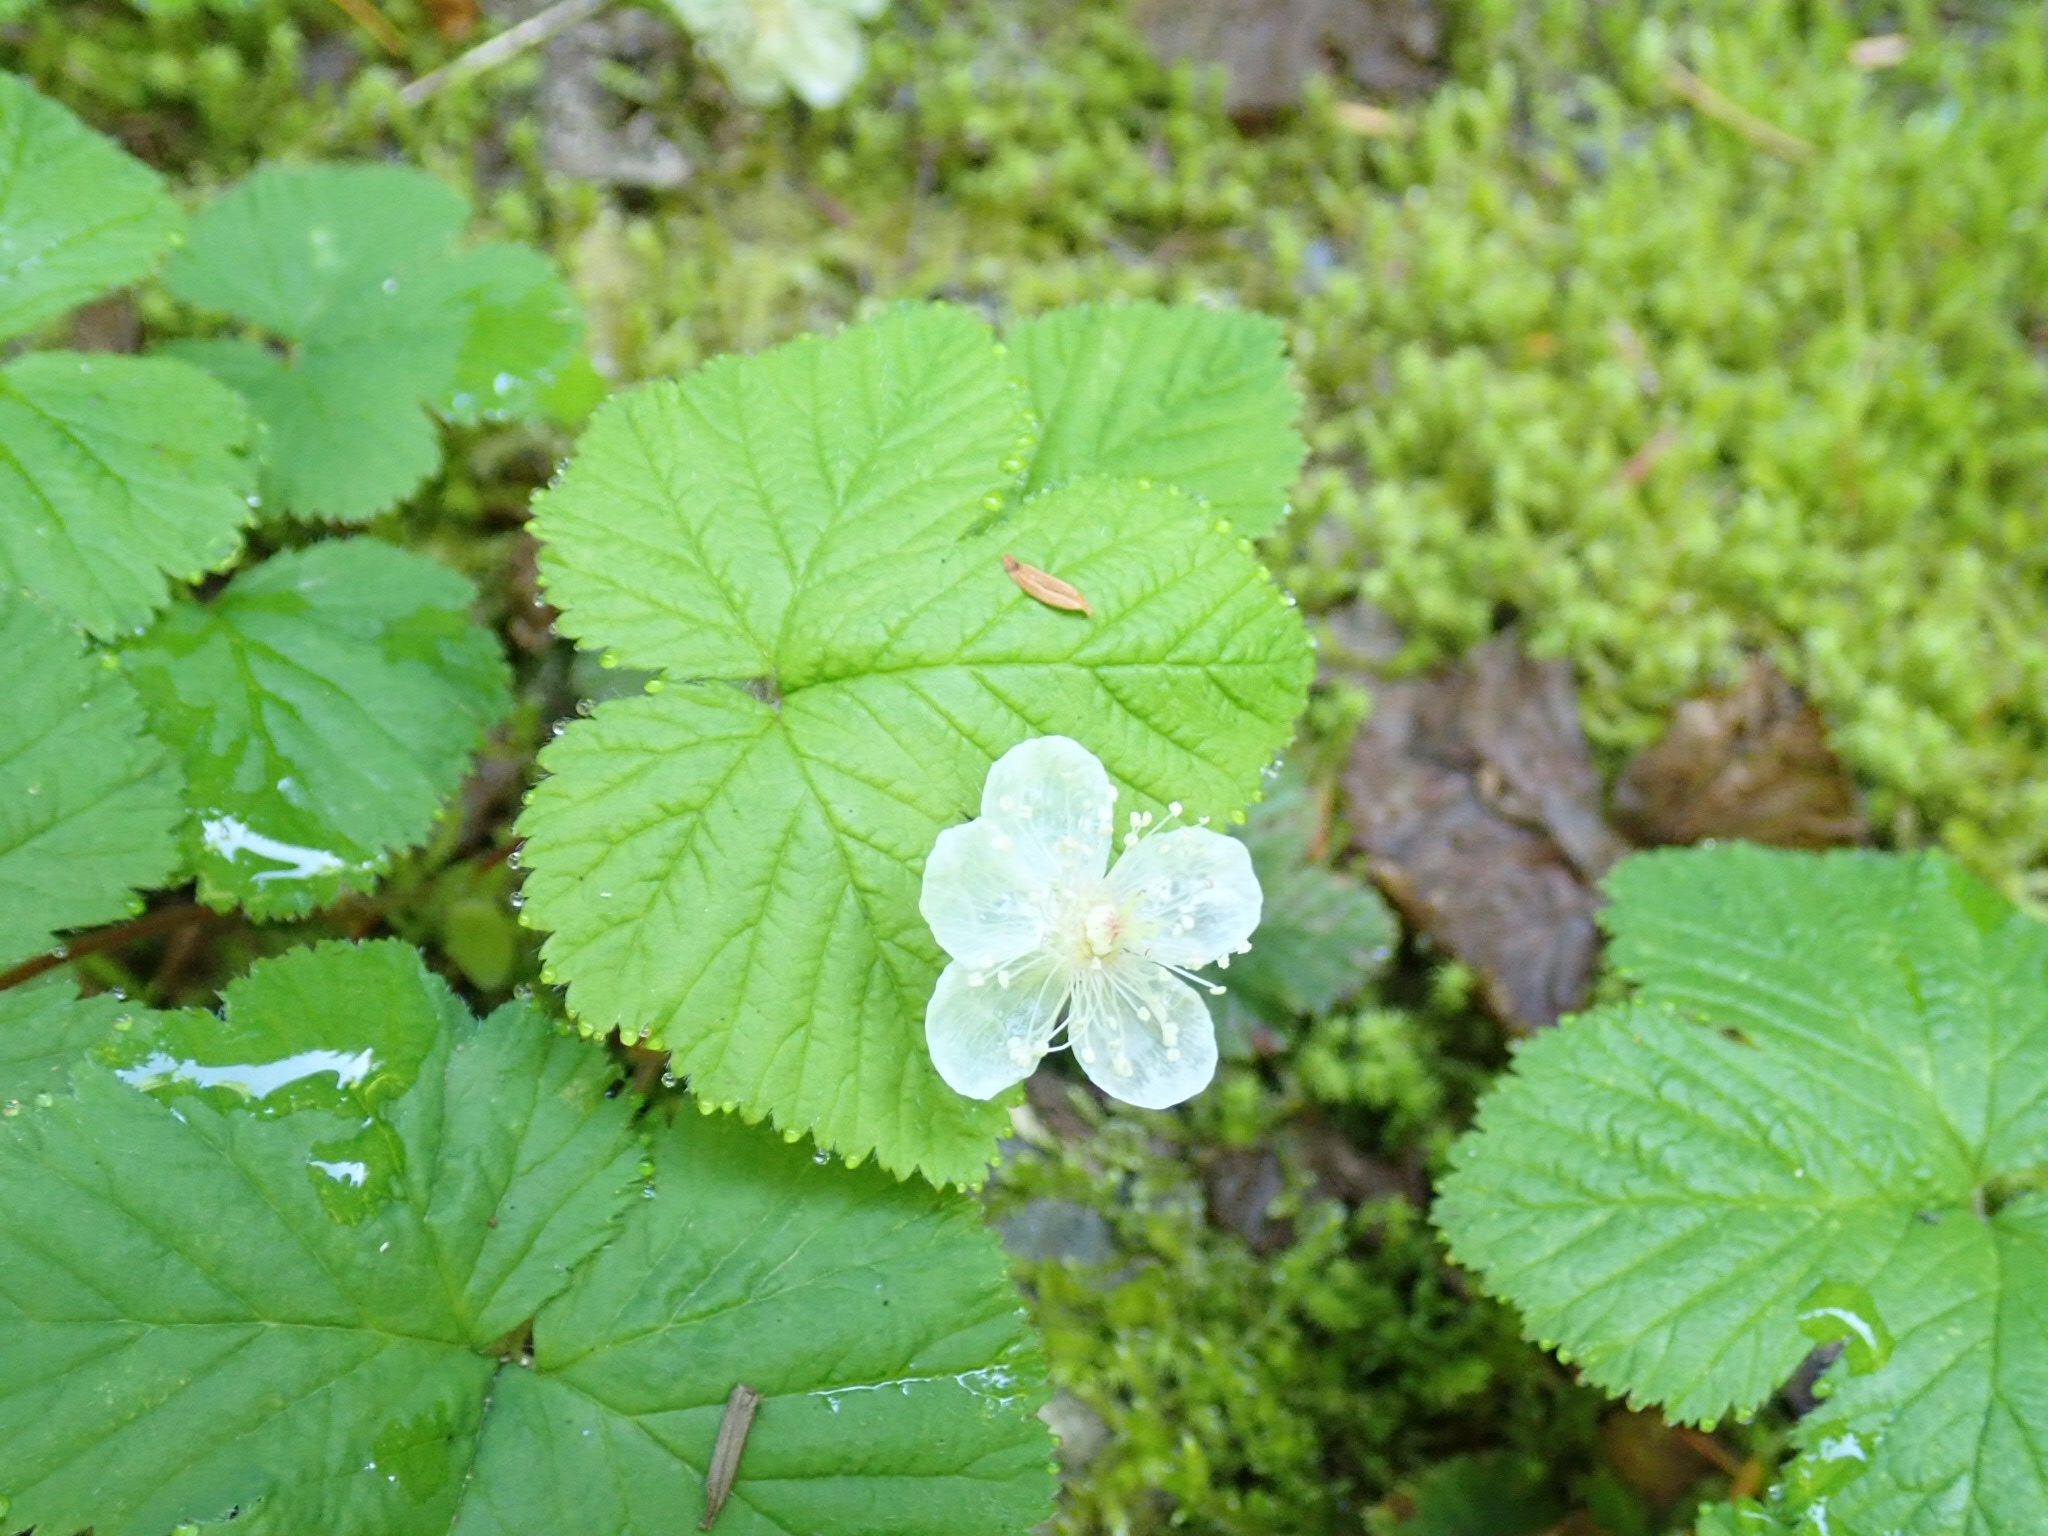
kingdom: Plantae
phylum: Tracheophyta
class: Magnoliopsida
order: Rosales
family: Rosaceae
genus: Rubus
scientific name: Rubus lasiococcus
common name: Dwarf bramble
